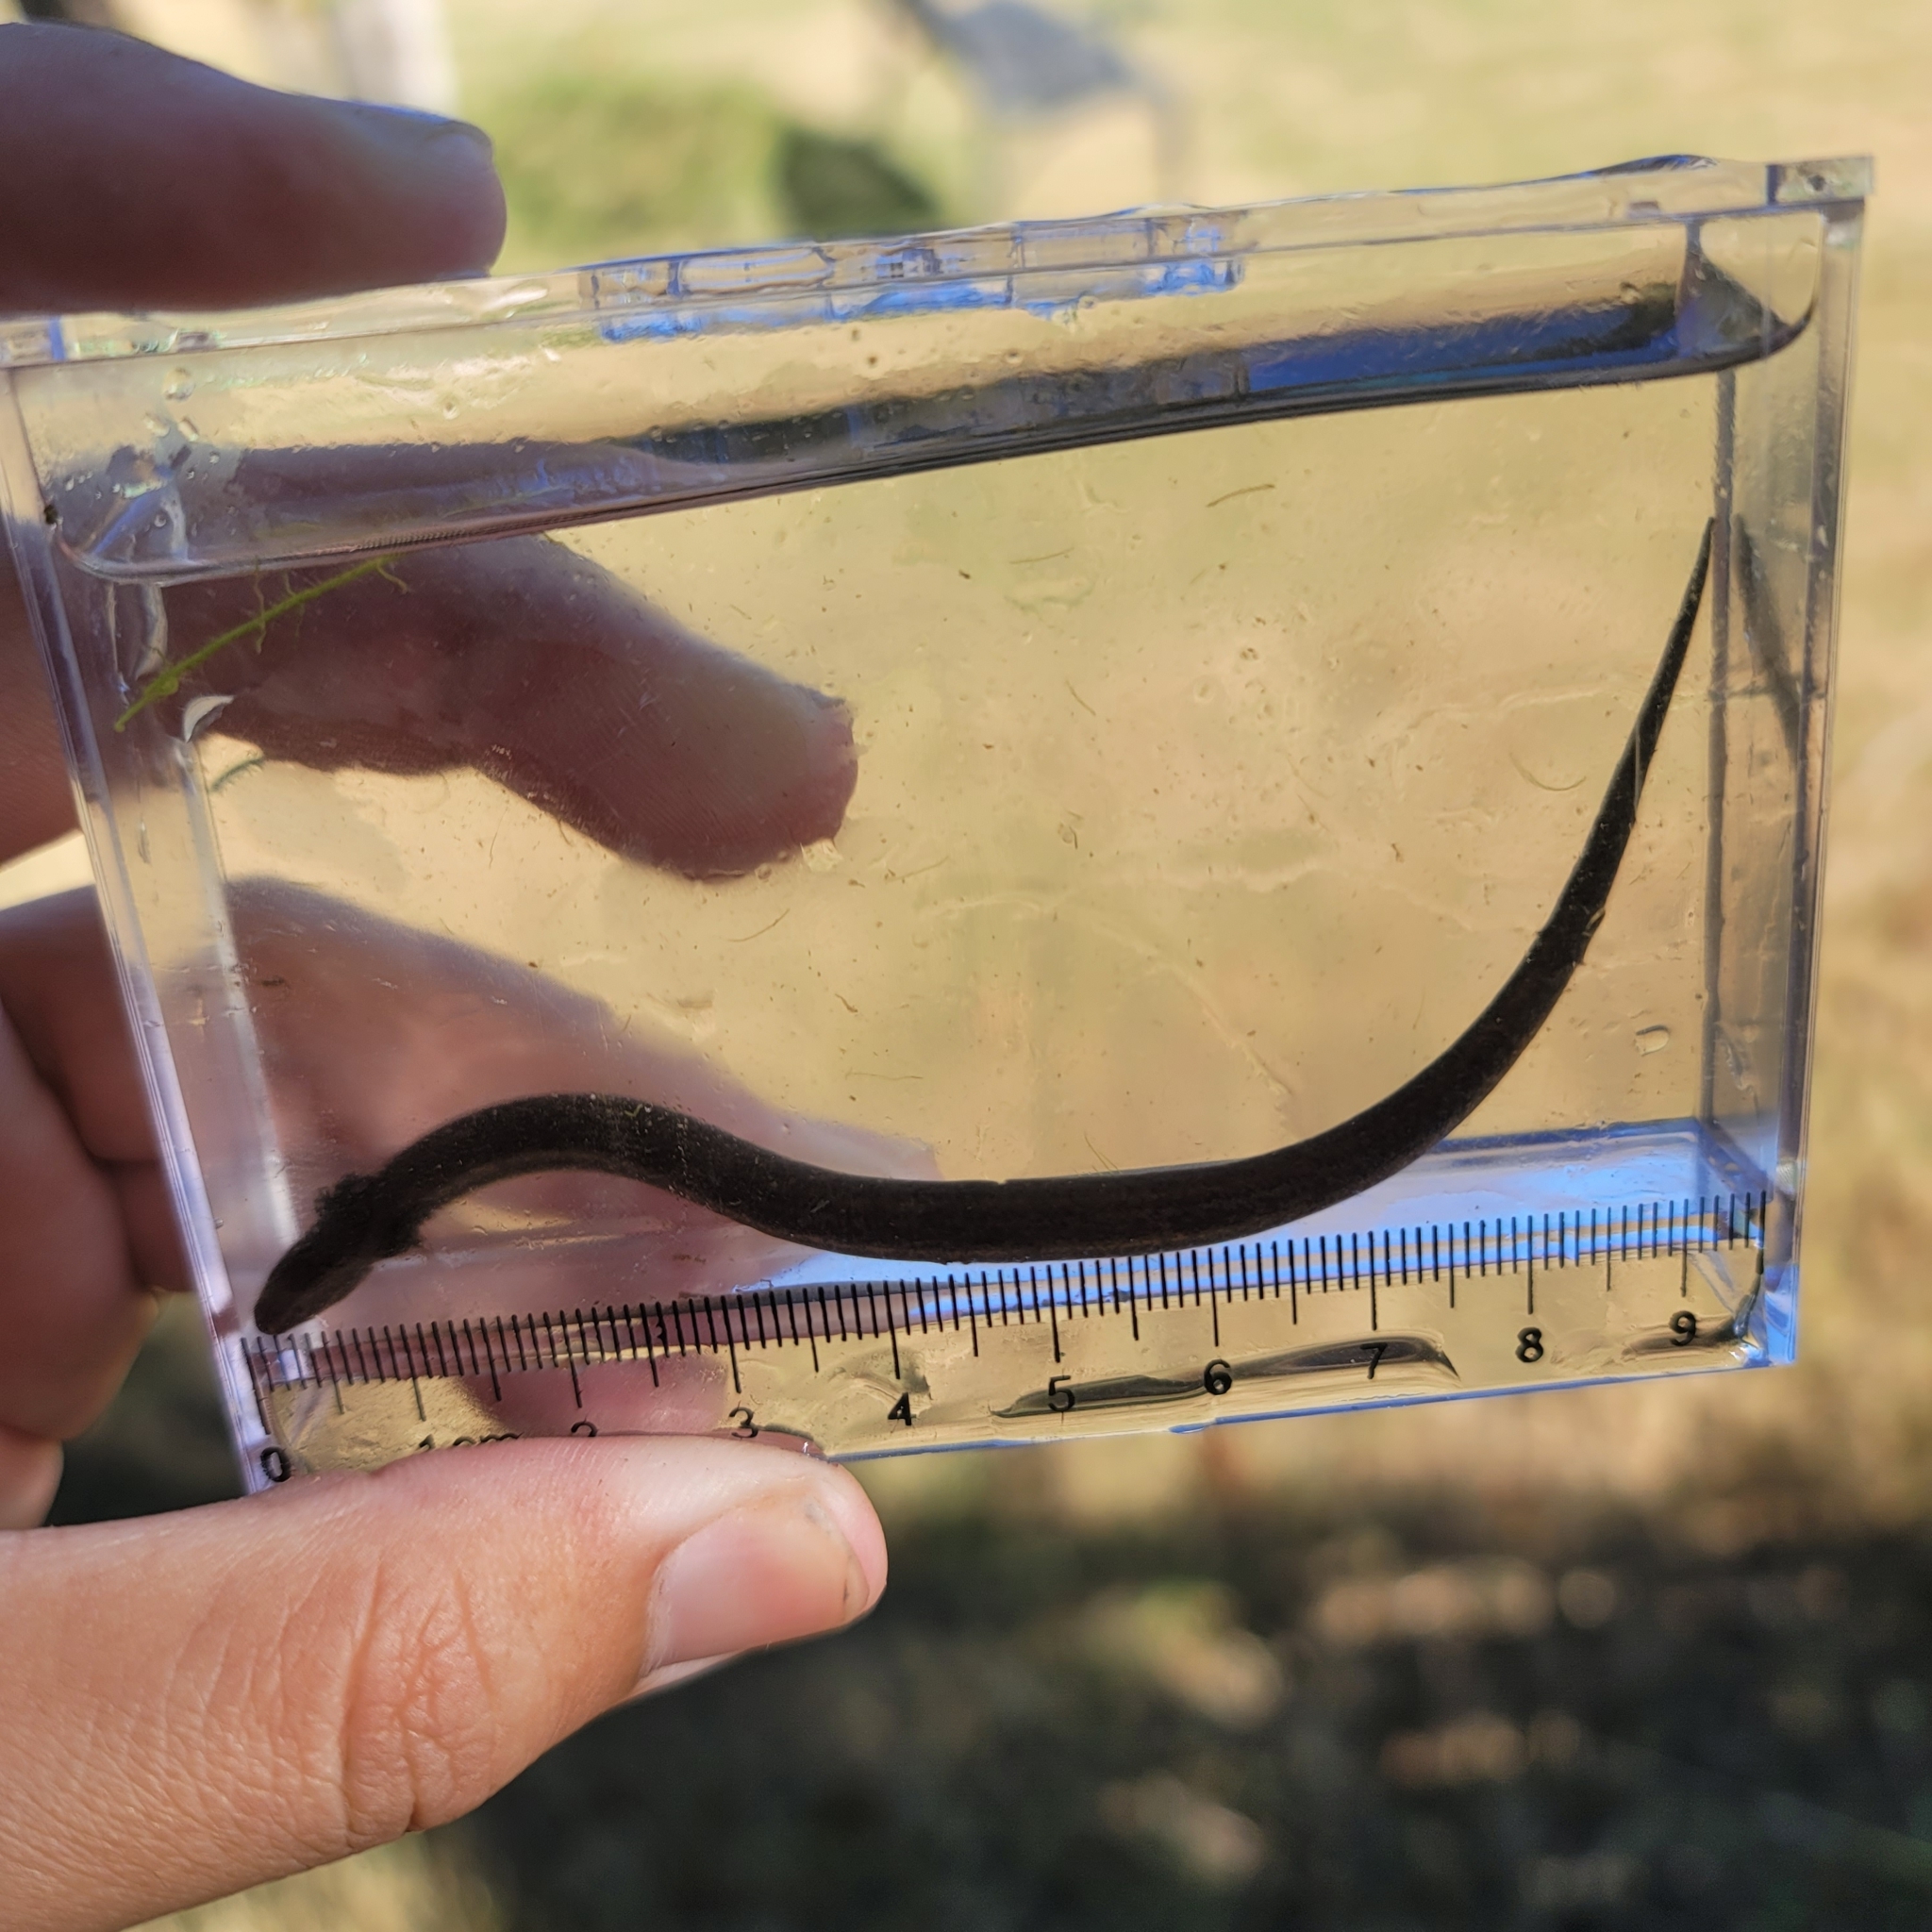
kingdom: Animalia
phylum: Chordata
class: Amphibia
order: Caudata
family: Sirenidae
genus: Pseudobranchus
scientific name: Pseudobranchus striatus
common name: Northern dwarf siren
